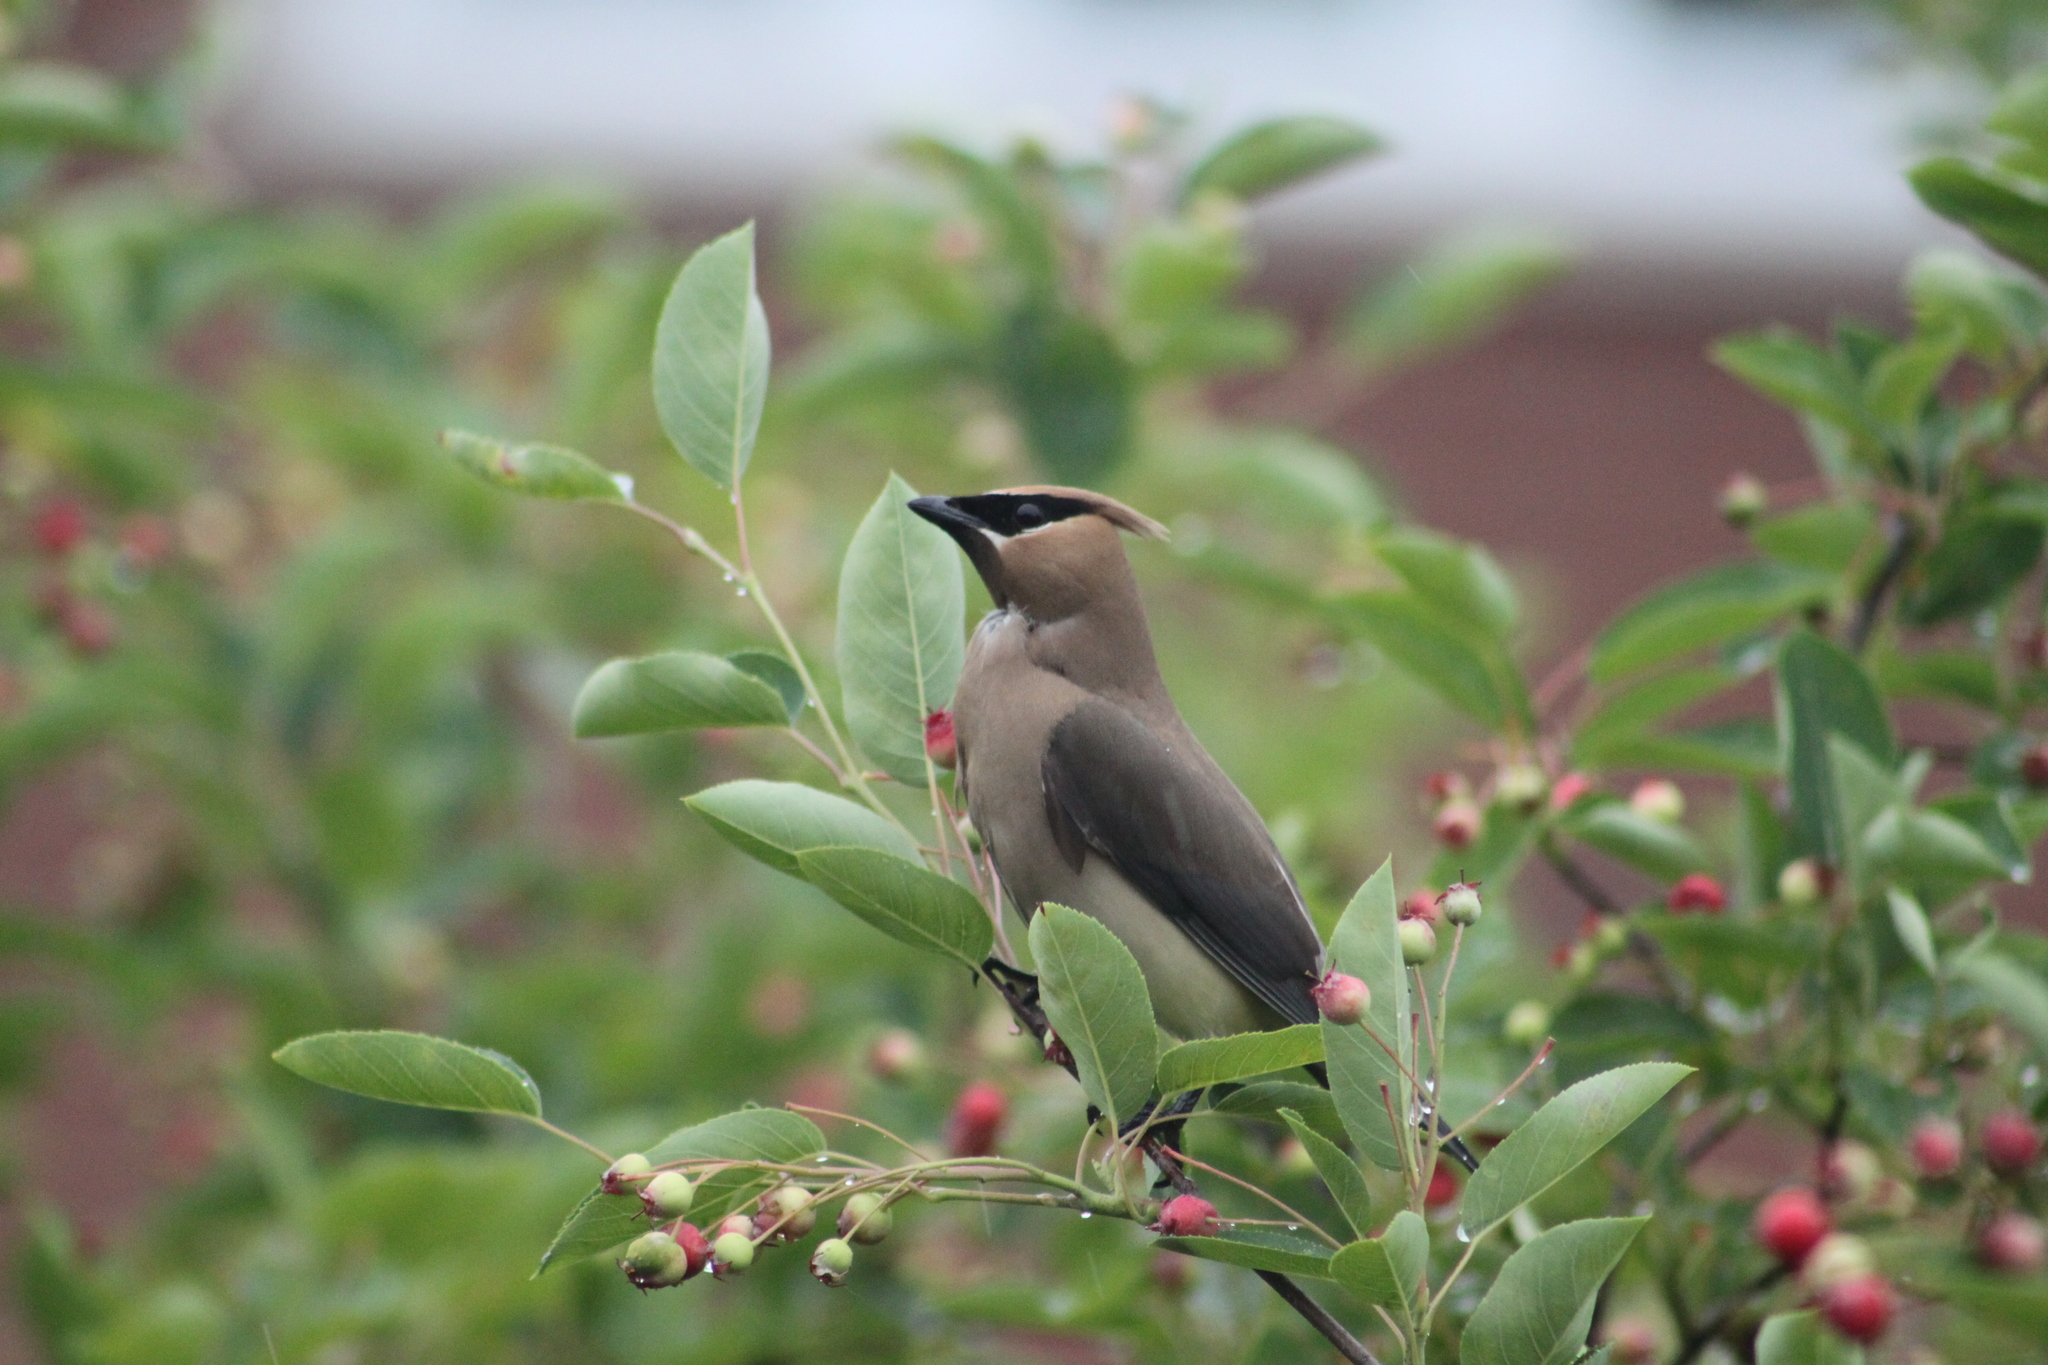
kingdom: Animalia
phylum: Chordata
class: Aves
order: Passeriformes
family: Bombycillidae
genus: Bombycilla
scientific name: Bombycilla cedrorum
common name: Cedar waxwing
